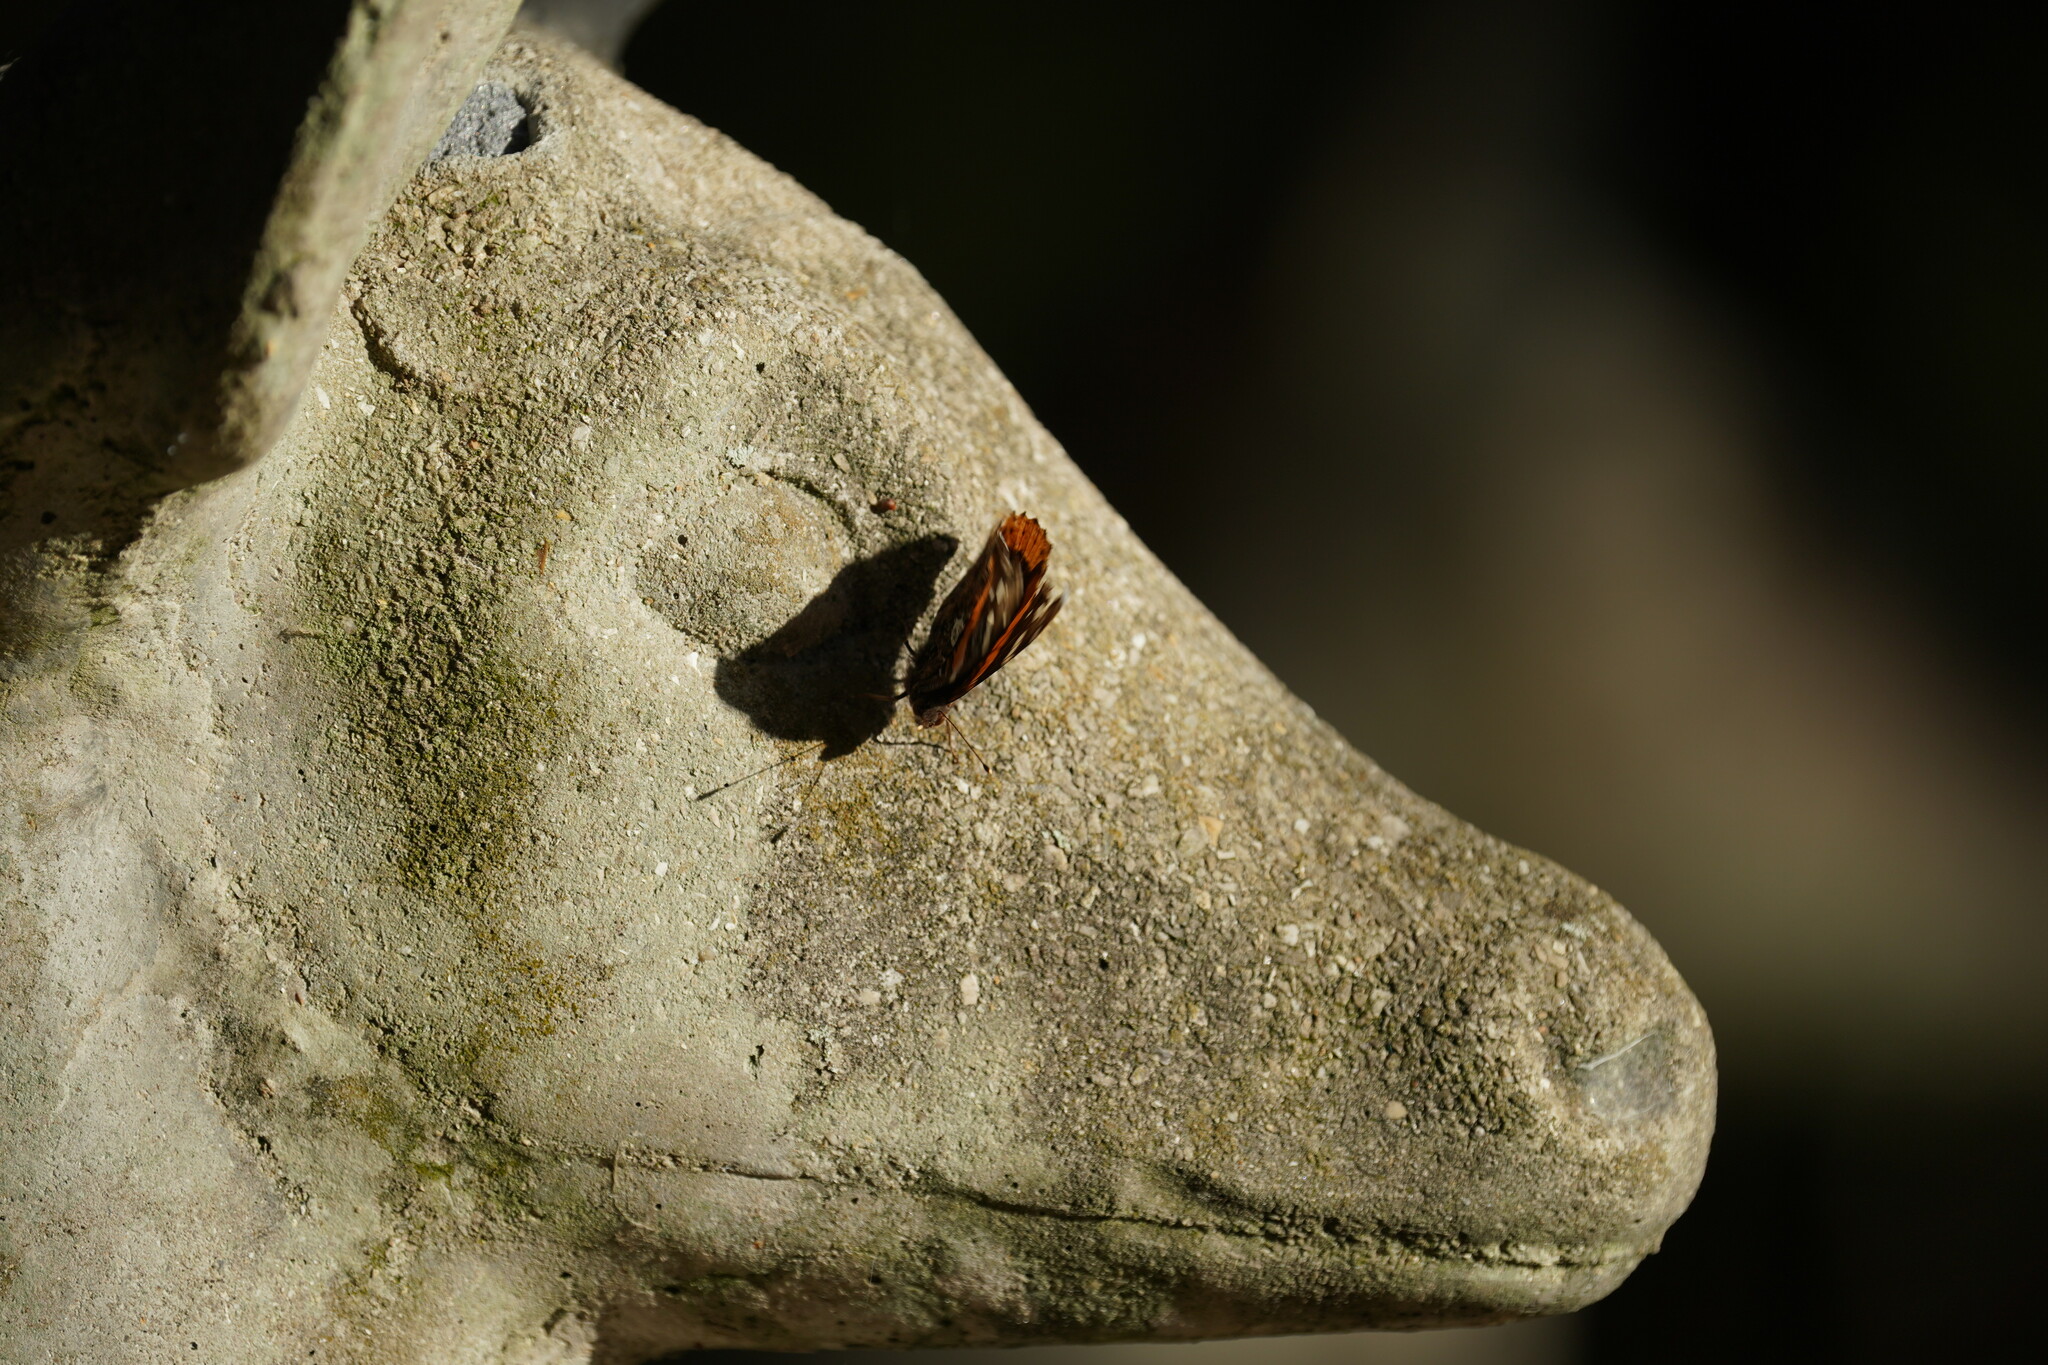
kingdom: Animalia
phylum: Arthropoda
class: Insecta
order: Lepidoptera
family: Nymphalidae
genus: Vanessa
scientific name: Vanessa atalanta
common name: Red admiral
